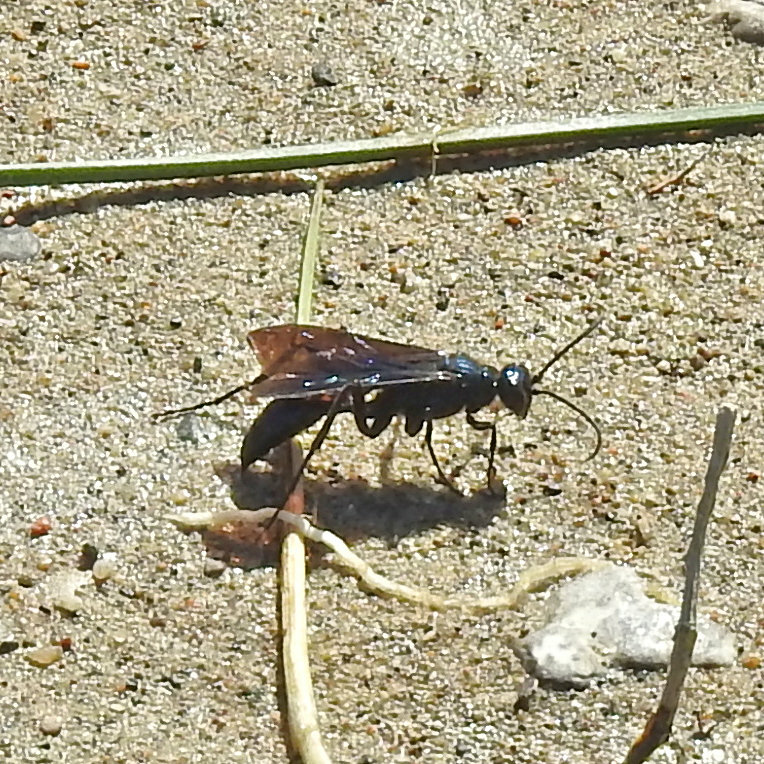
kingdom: Animalia
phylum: Arthropoda
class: Insecta
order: Hymenoptera
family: Sphecidae
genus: Chalybion
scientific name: Chalybion californicum
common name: Mud dauber
